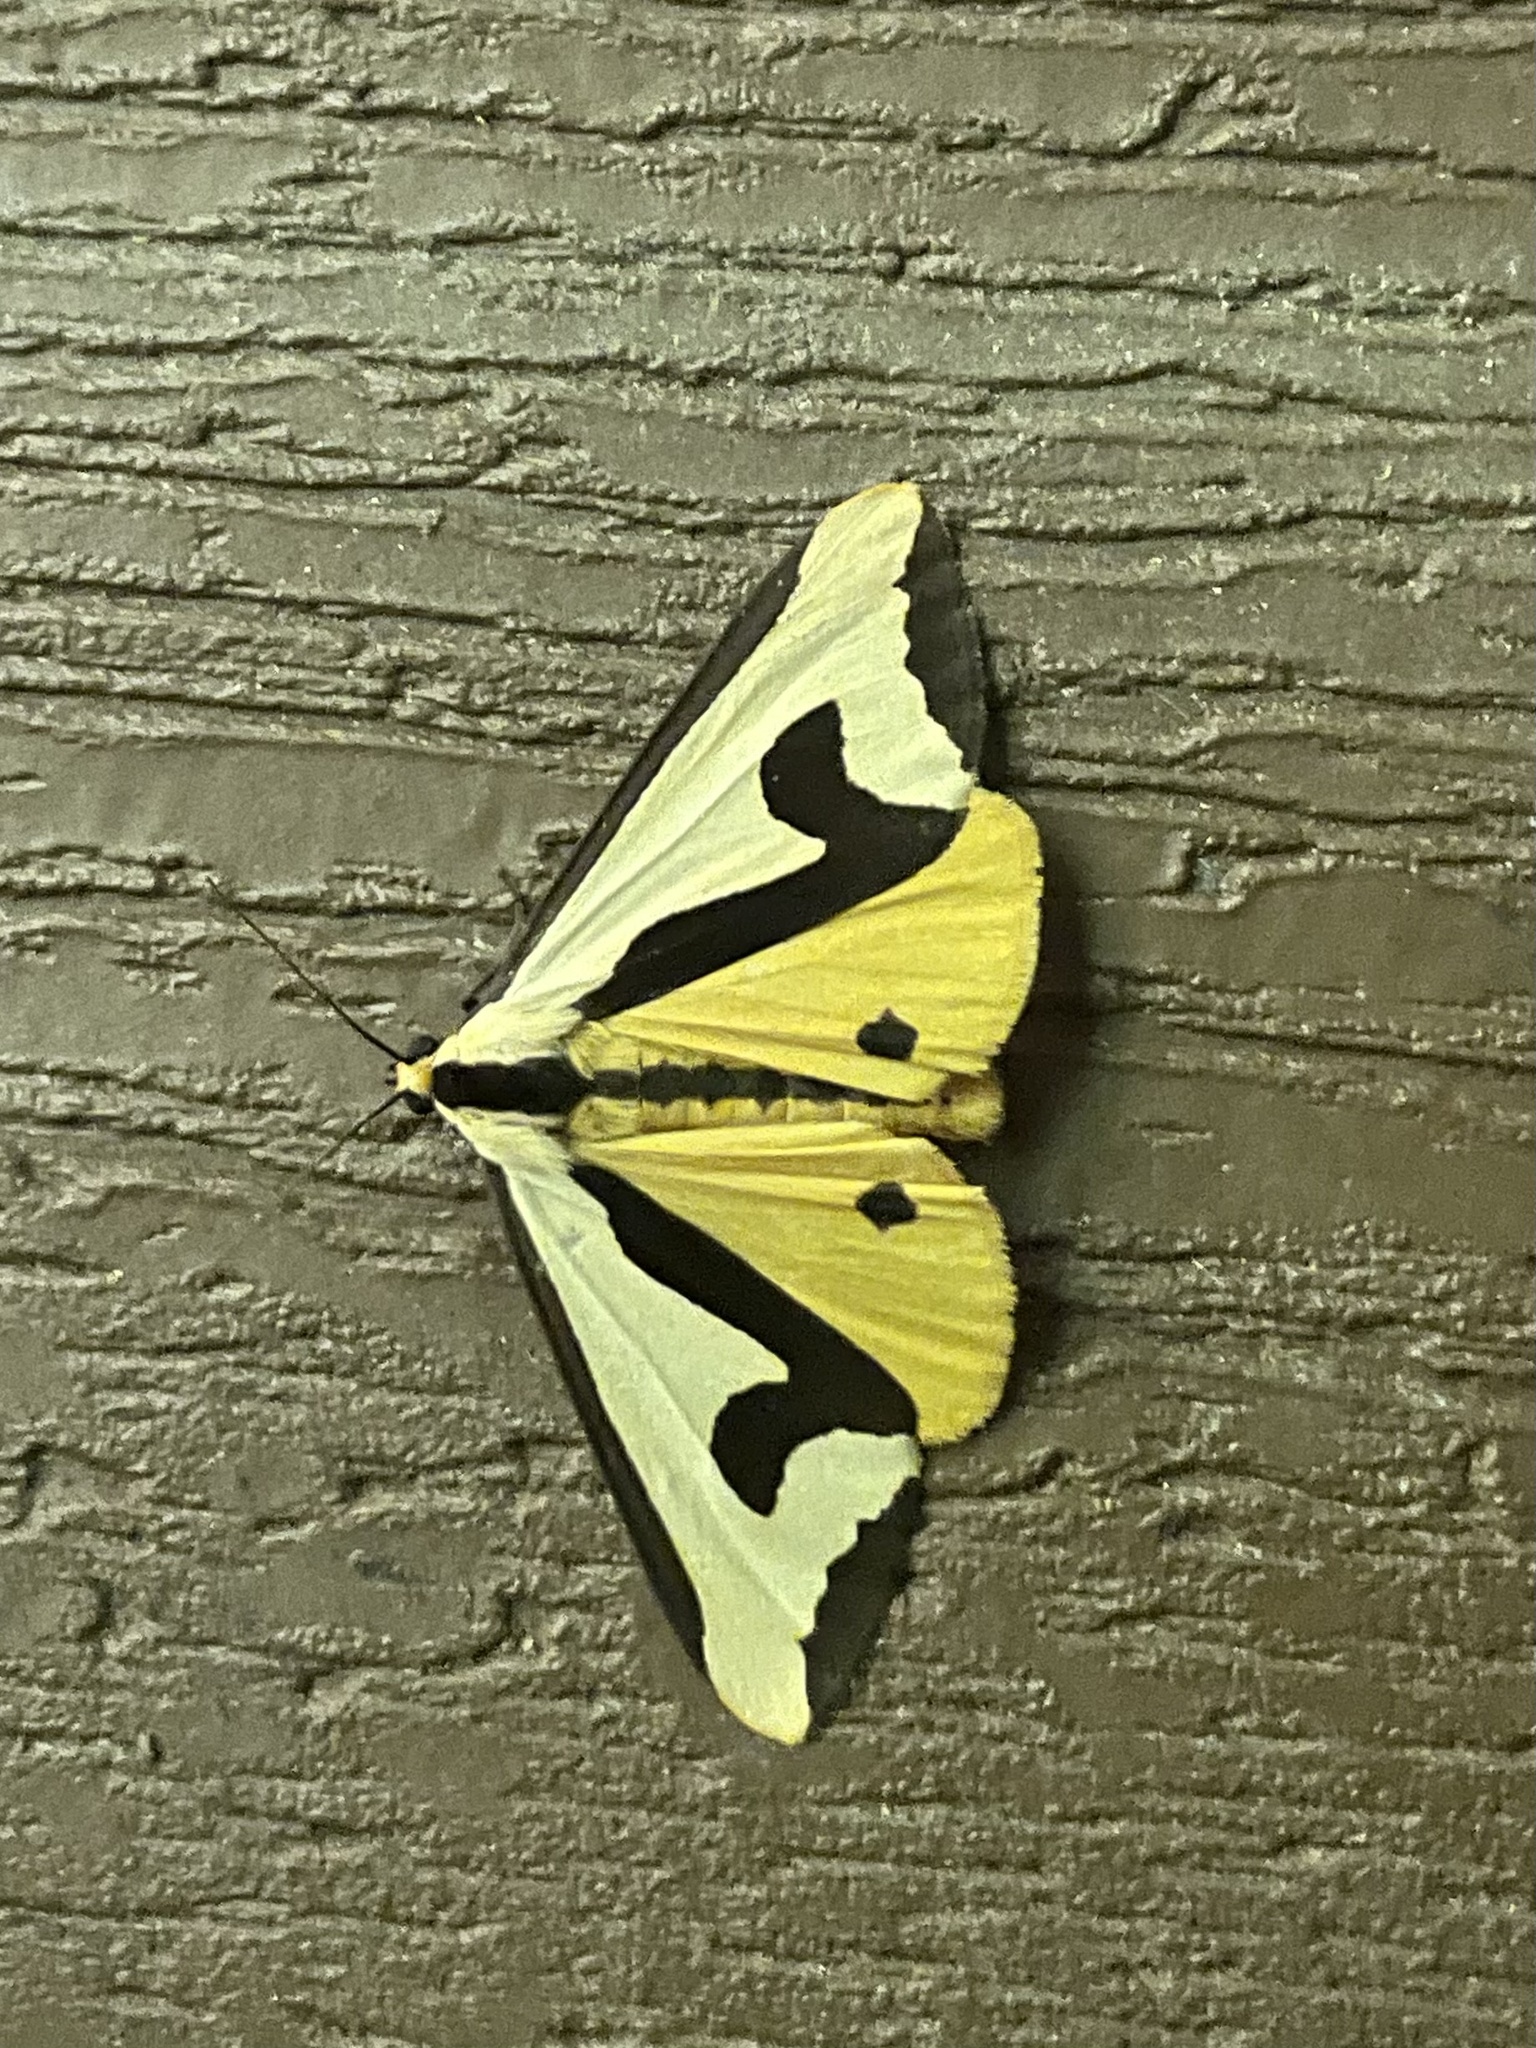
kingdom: Animalia
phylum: Arthropoda
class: Insecta
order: Lepidoptera
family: Erebidae
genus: Haploa
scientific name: Haploa clymene
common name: Clymene moth
